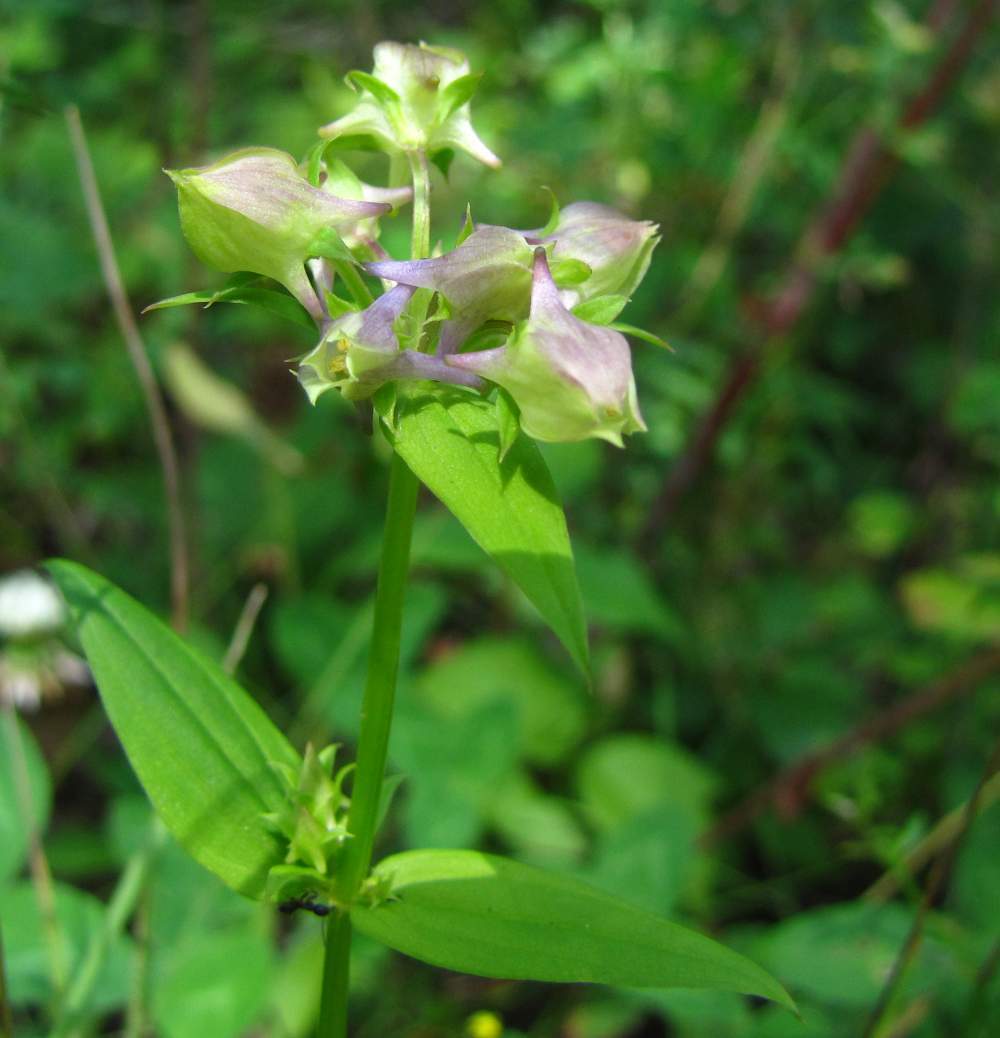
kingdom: Plantae
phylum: Tracheophyta
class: Magnoliopsida
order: Gentianales
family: Gentianaceae
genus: Halenia
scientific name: Halenia deflexa
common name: American spurred gentian
